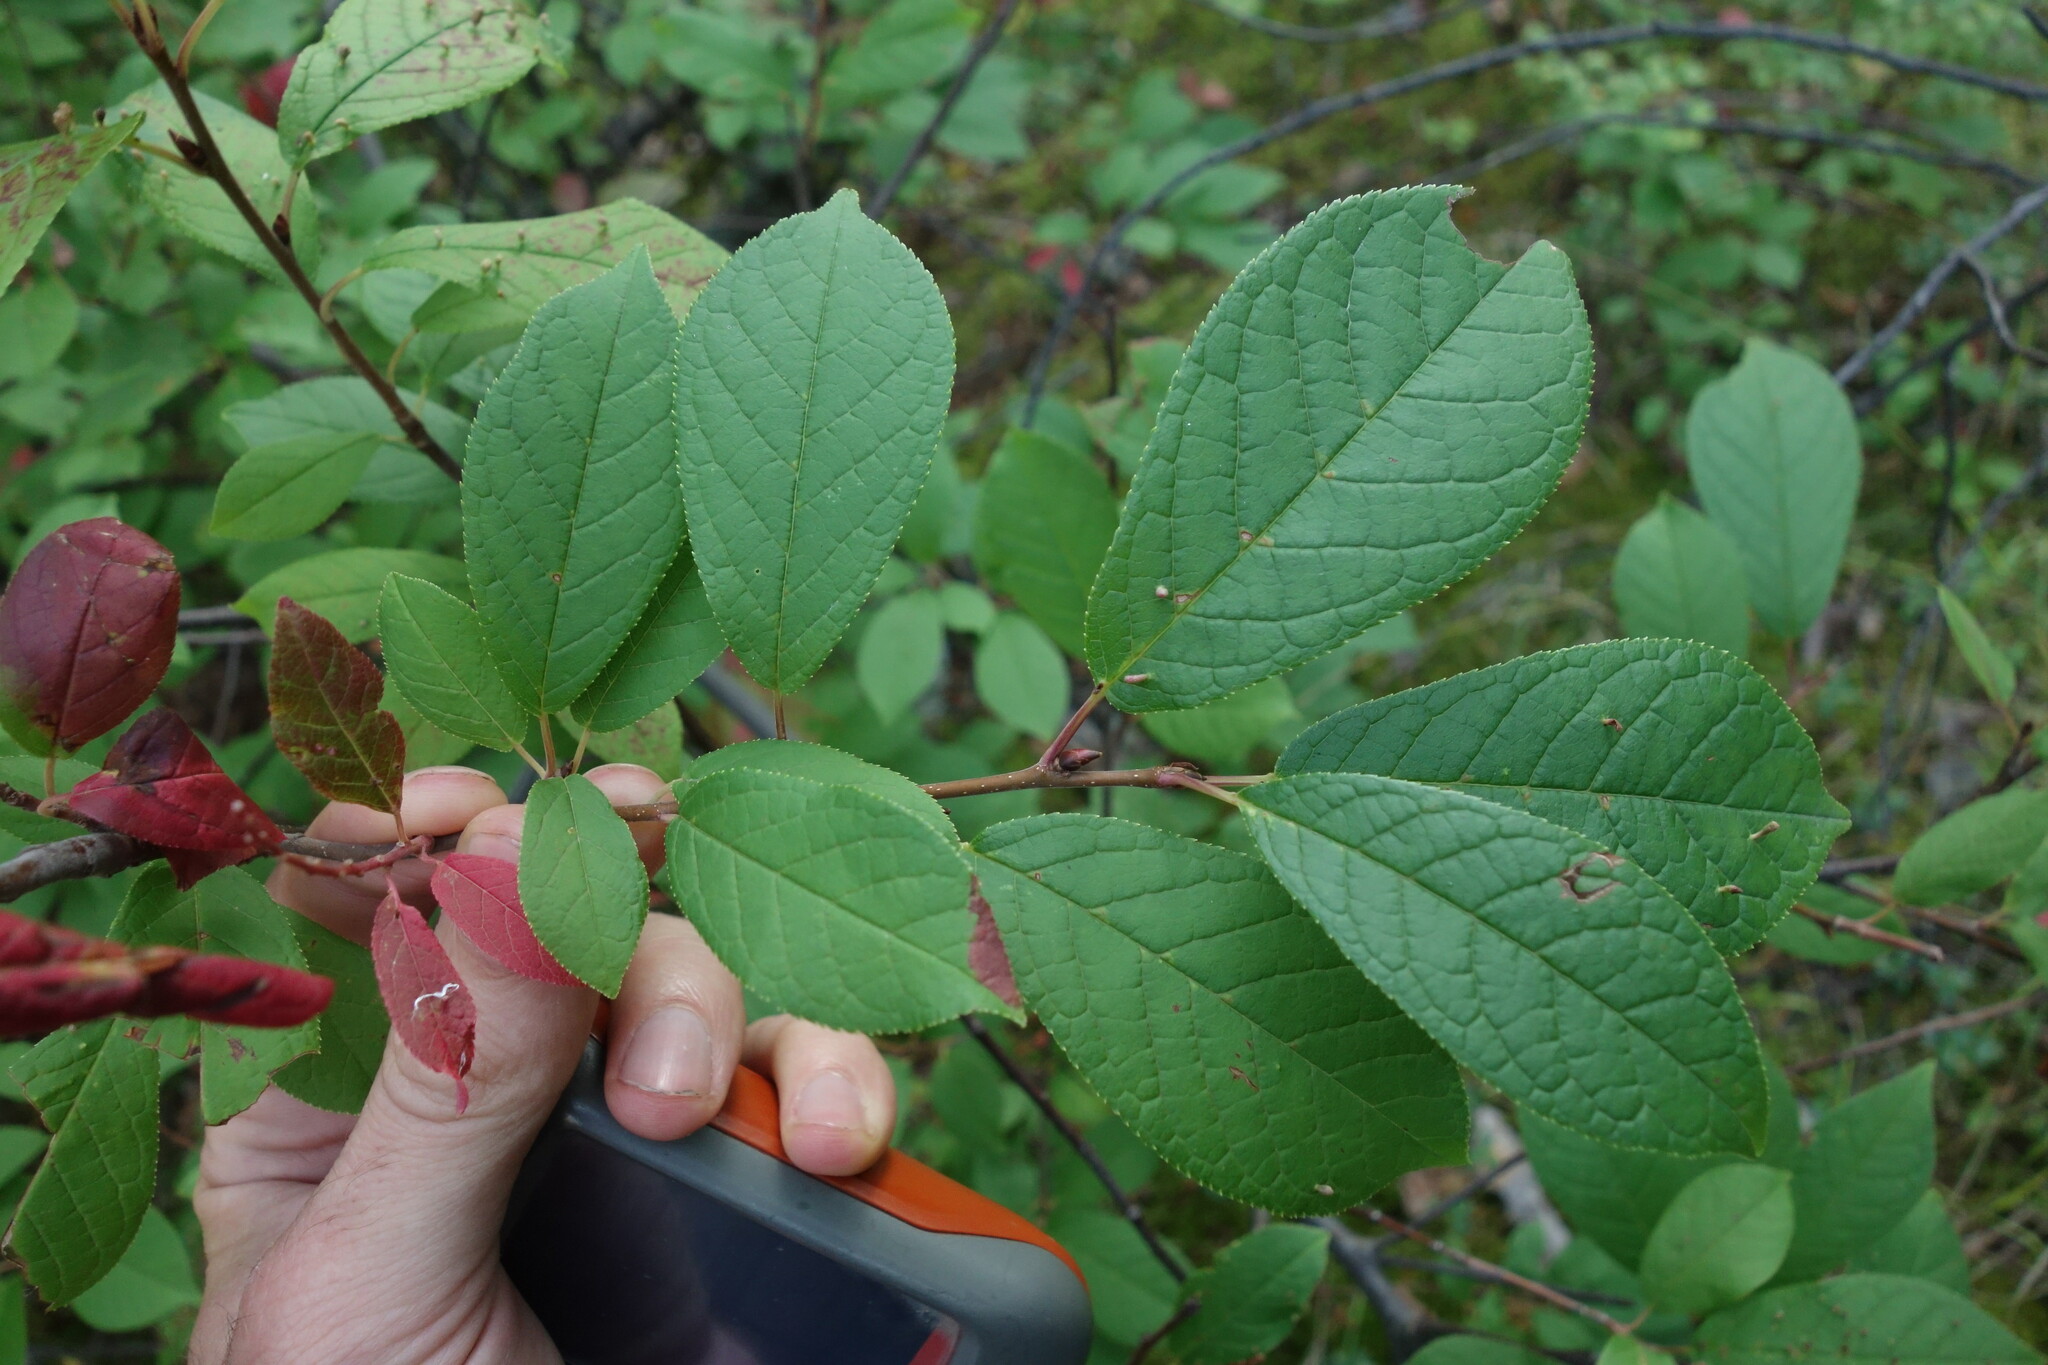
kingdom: Plantae
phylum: Tracheophyta
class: Magnoliopsida
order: Rosales
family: Rosaceae
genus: Prunus
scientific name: Prunus padus
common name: Bird cherry
